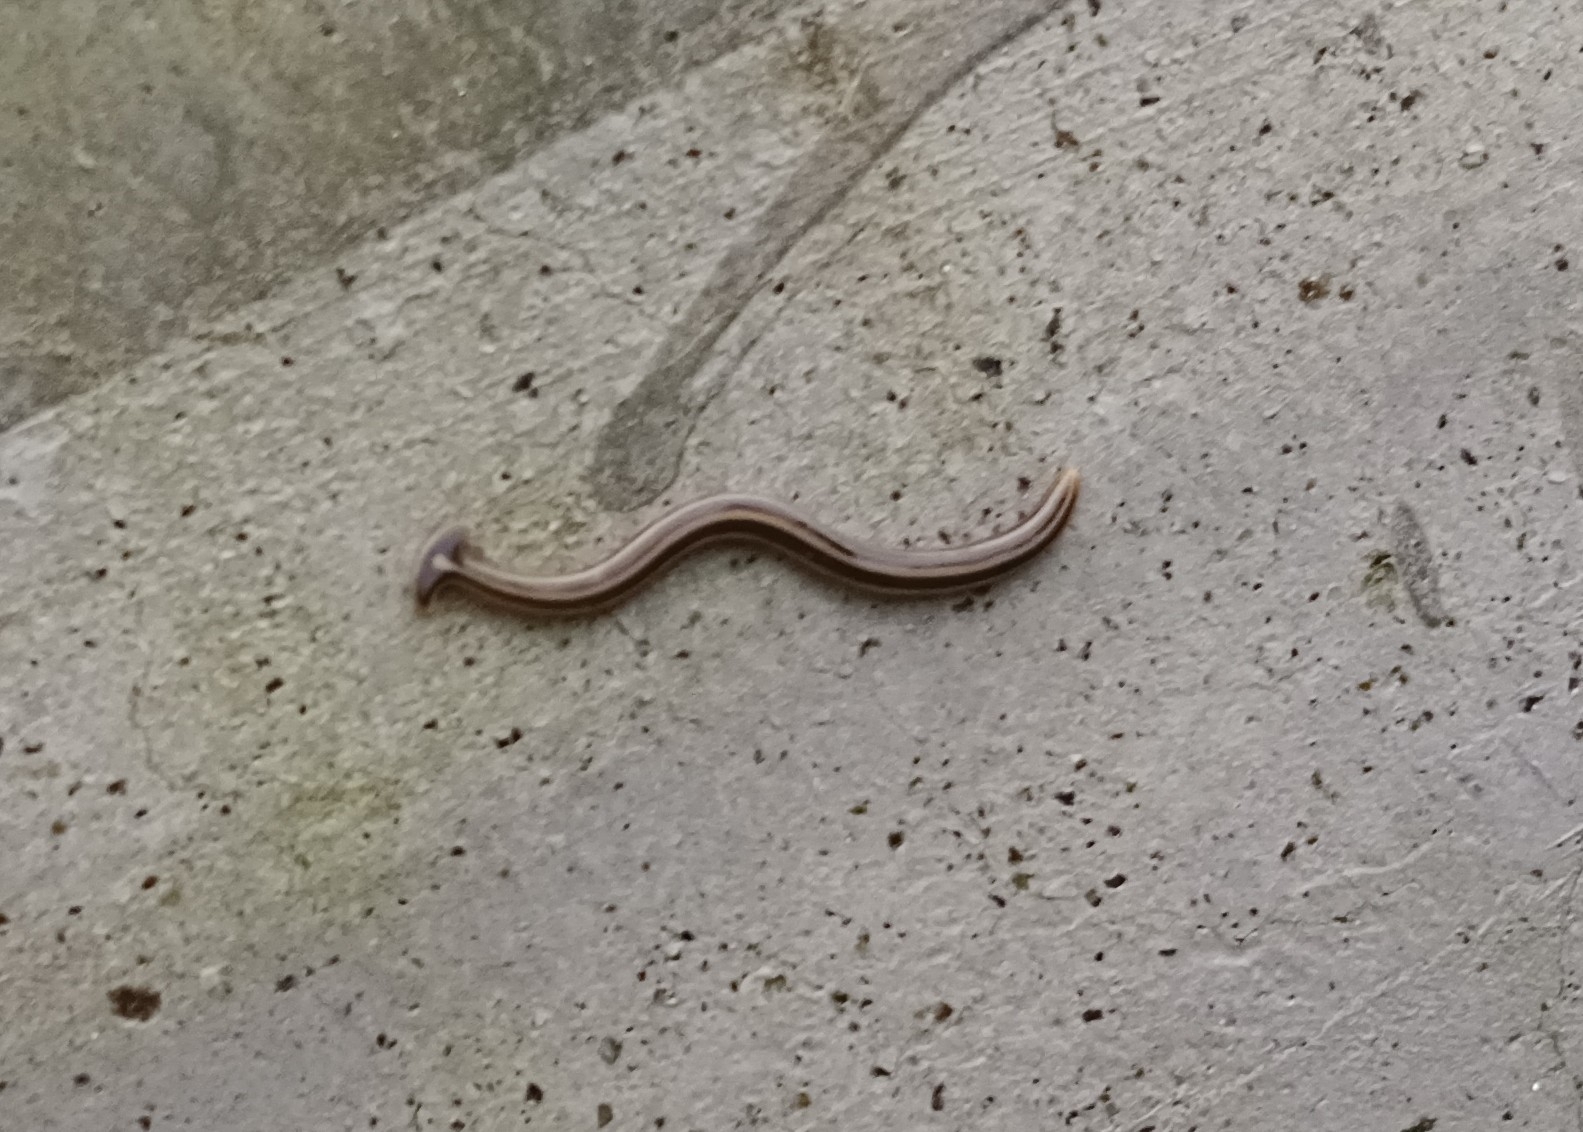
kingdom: Animalia
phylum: Platyhelminthes
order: Tricladida
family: Geoplanidae
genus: Humbertium
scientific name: Humbertium proserpina
